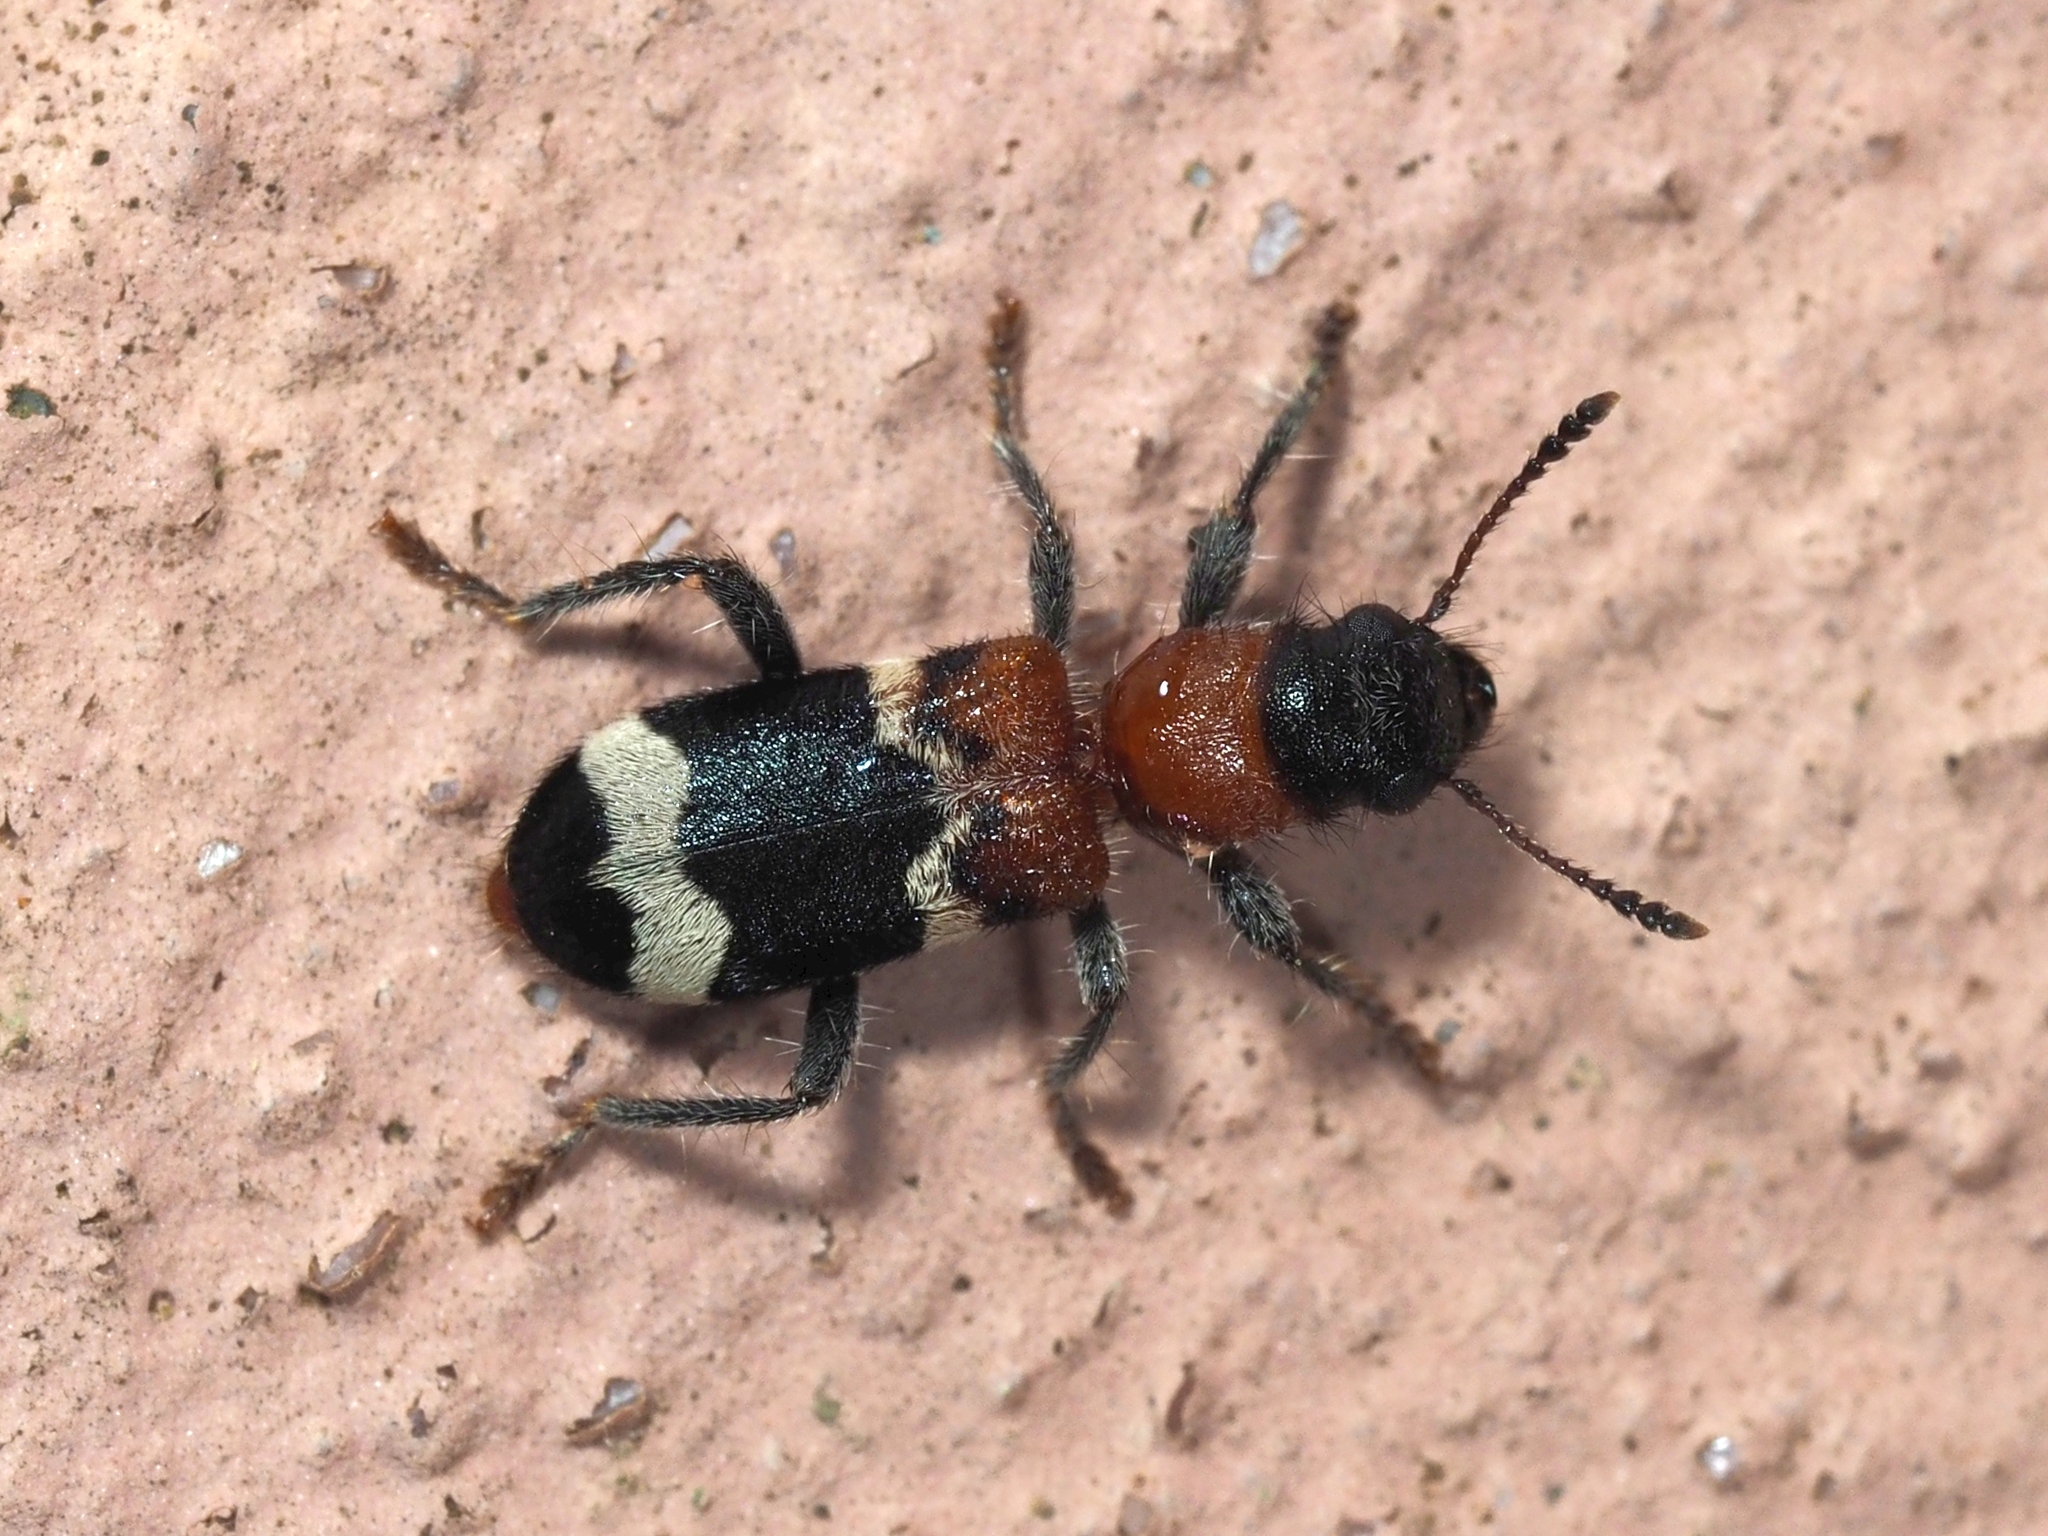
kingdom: Animalia
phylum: Arthropoda
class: Insecta
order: Coleoptera
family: Cleridae
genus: Thanasimus
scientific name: Thanasimus formicarius
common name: Ant beetle
